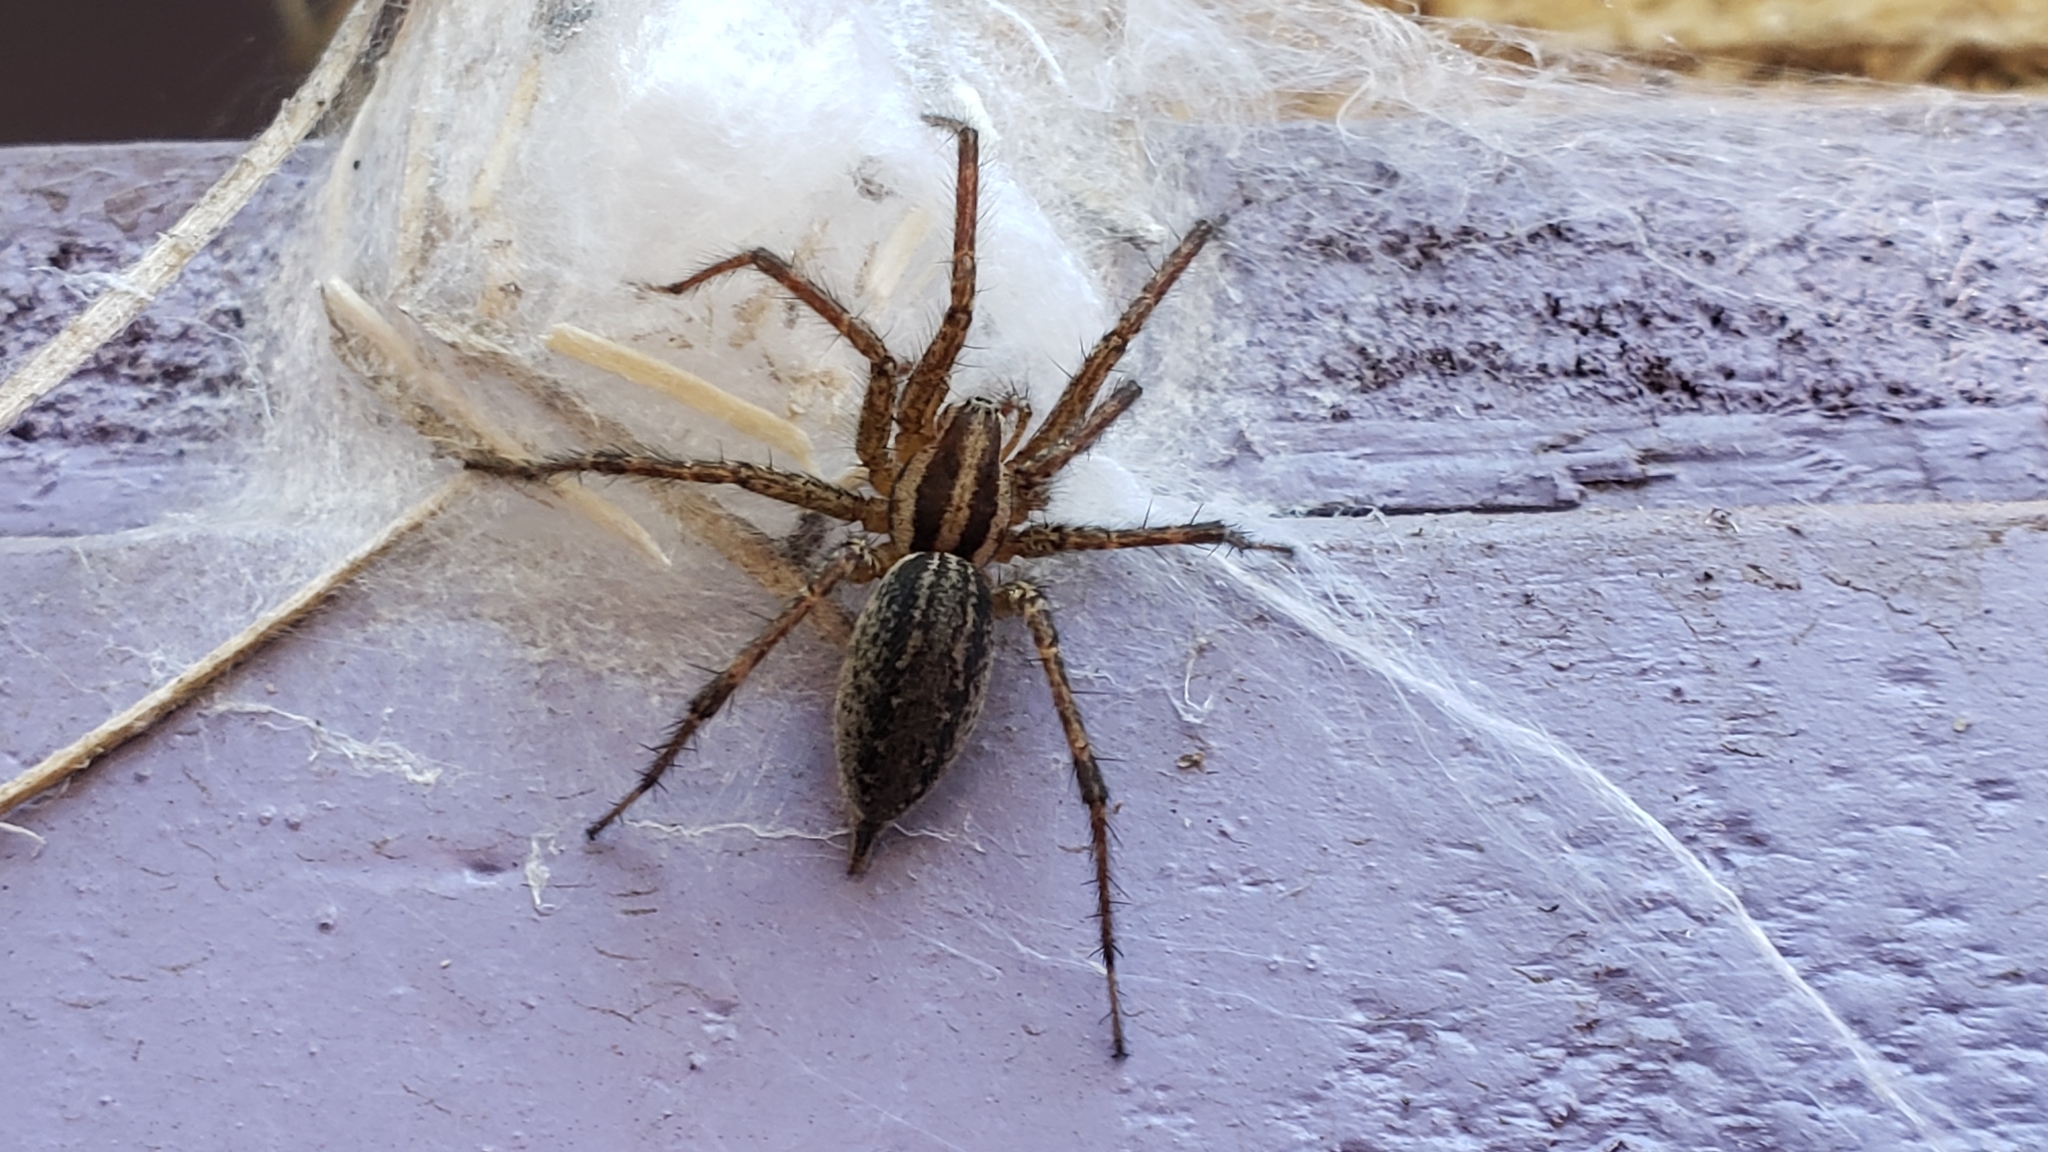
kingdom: Animalia
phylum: Arthropoda
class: Arachnida
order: Araneae
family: Agelenidae
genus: Agelenopsis
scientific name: Agelenopsis
